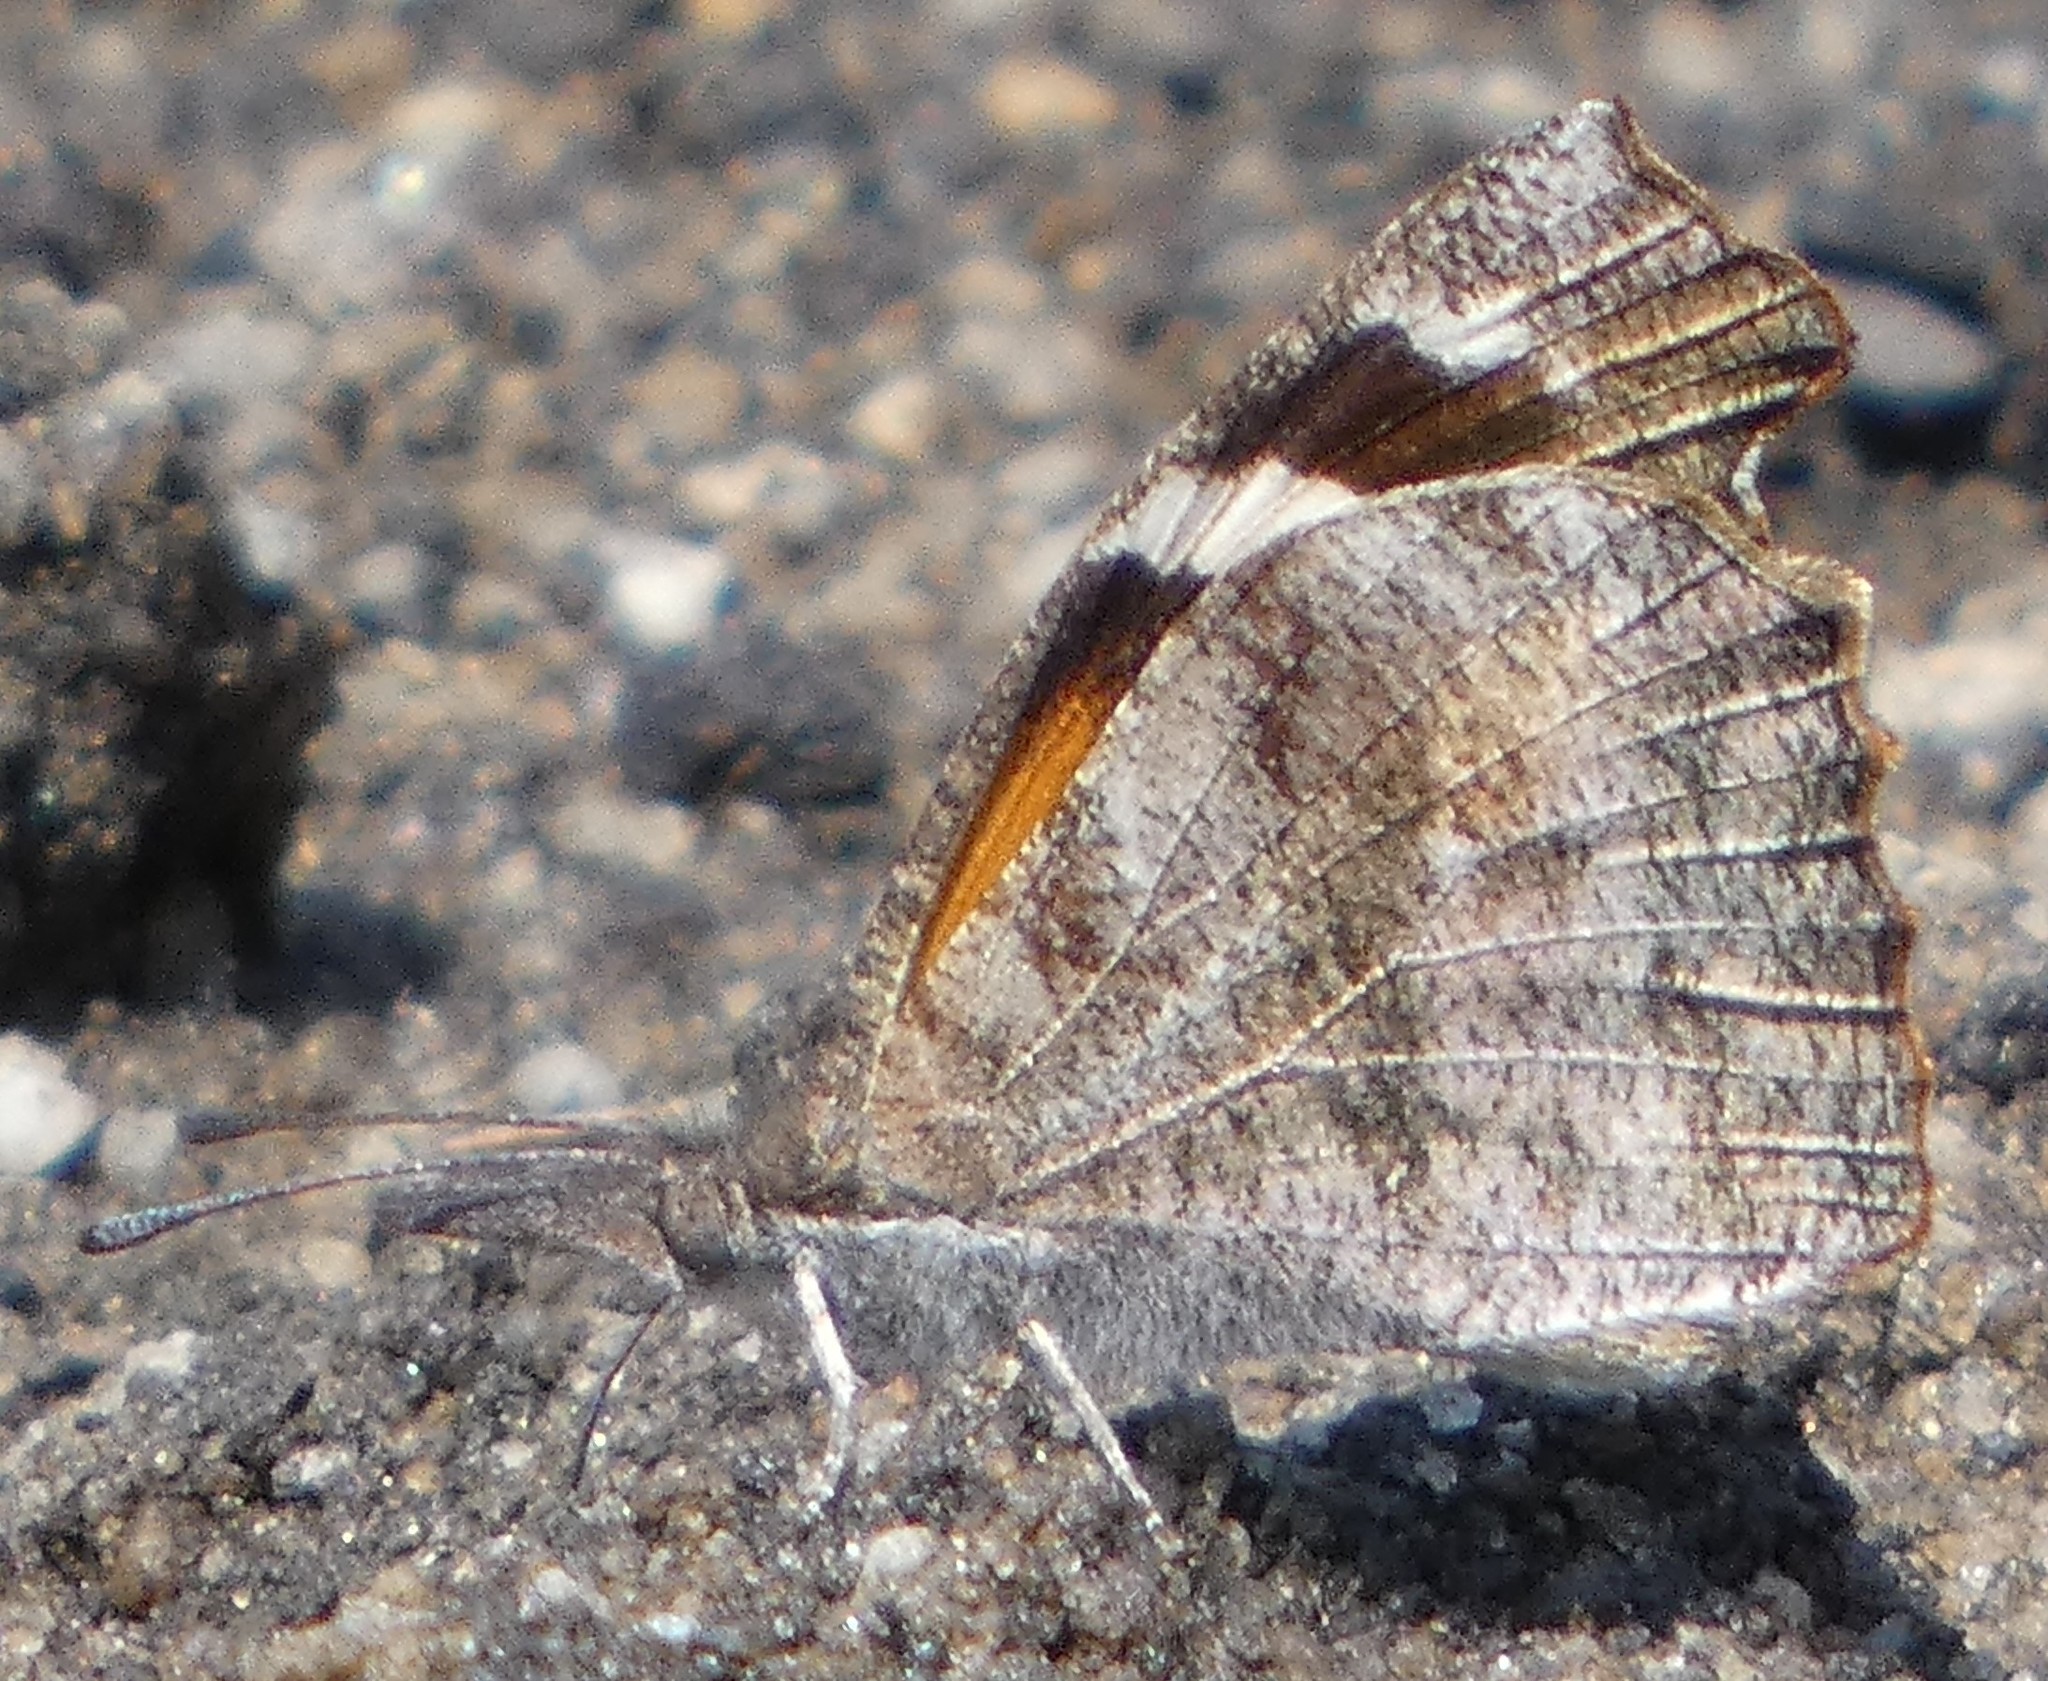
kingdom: Animalia
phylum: Arthropoda
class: Insecta
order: Lepidoptera
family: Nymphalidae
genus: Libytheana
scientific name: Libytheana carinenta
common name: American snout
